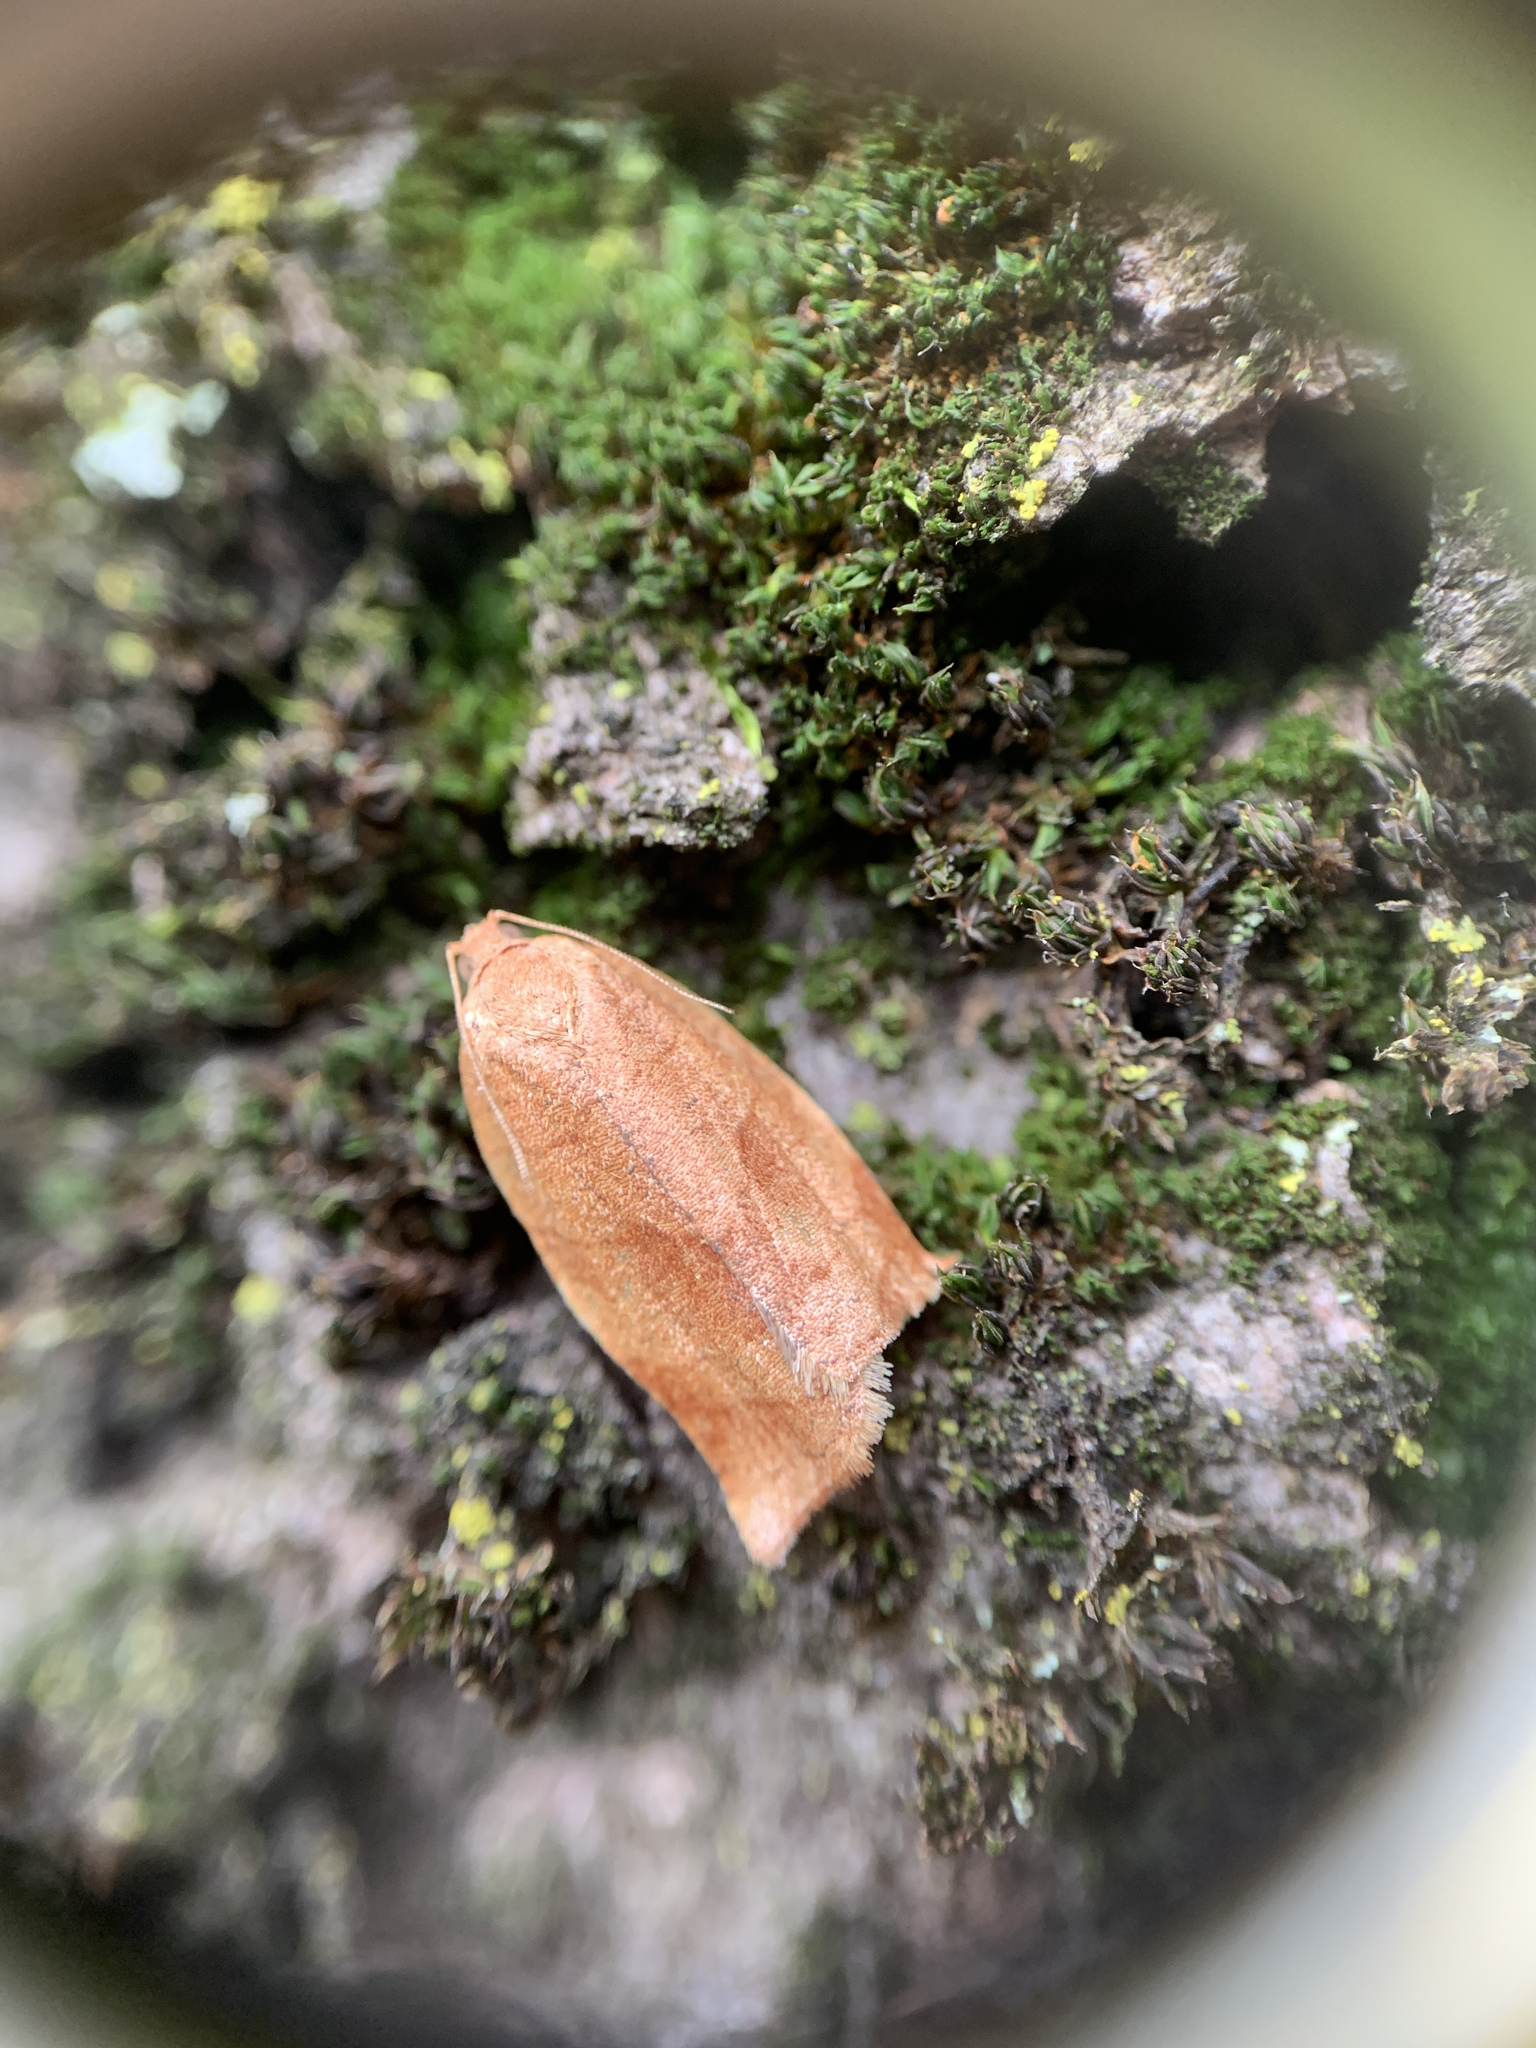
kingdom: Animalia
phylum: Arthropoda
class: Insecta
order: Lepidoptera
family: Tortricidae
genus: Choristoneura
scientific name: Choristoneura rosaceana
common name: Oblique-banded leafroller moth
